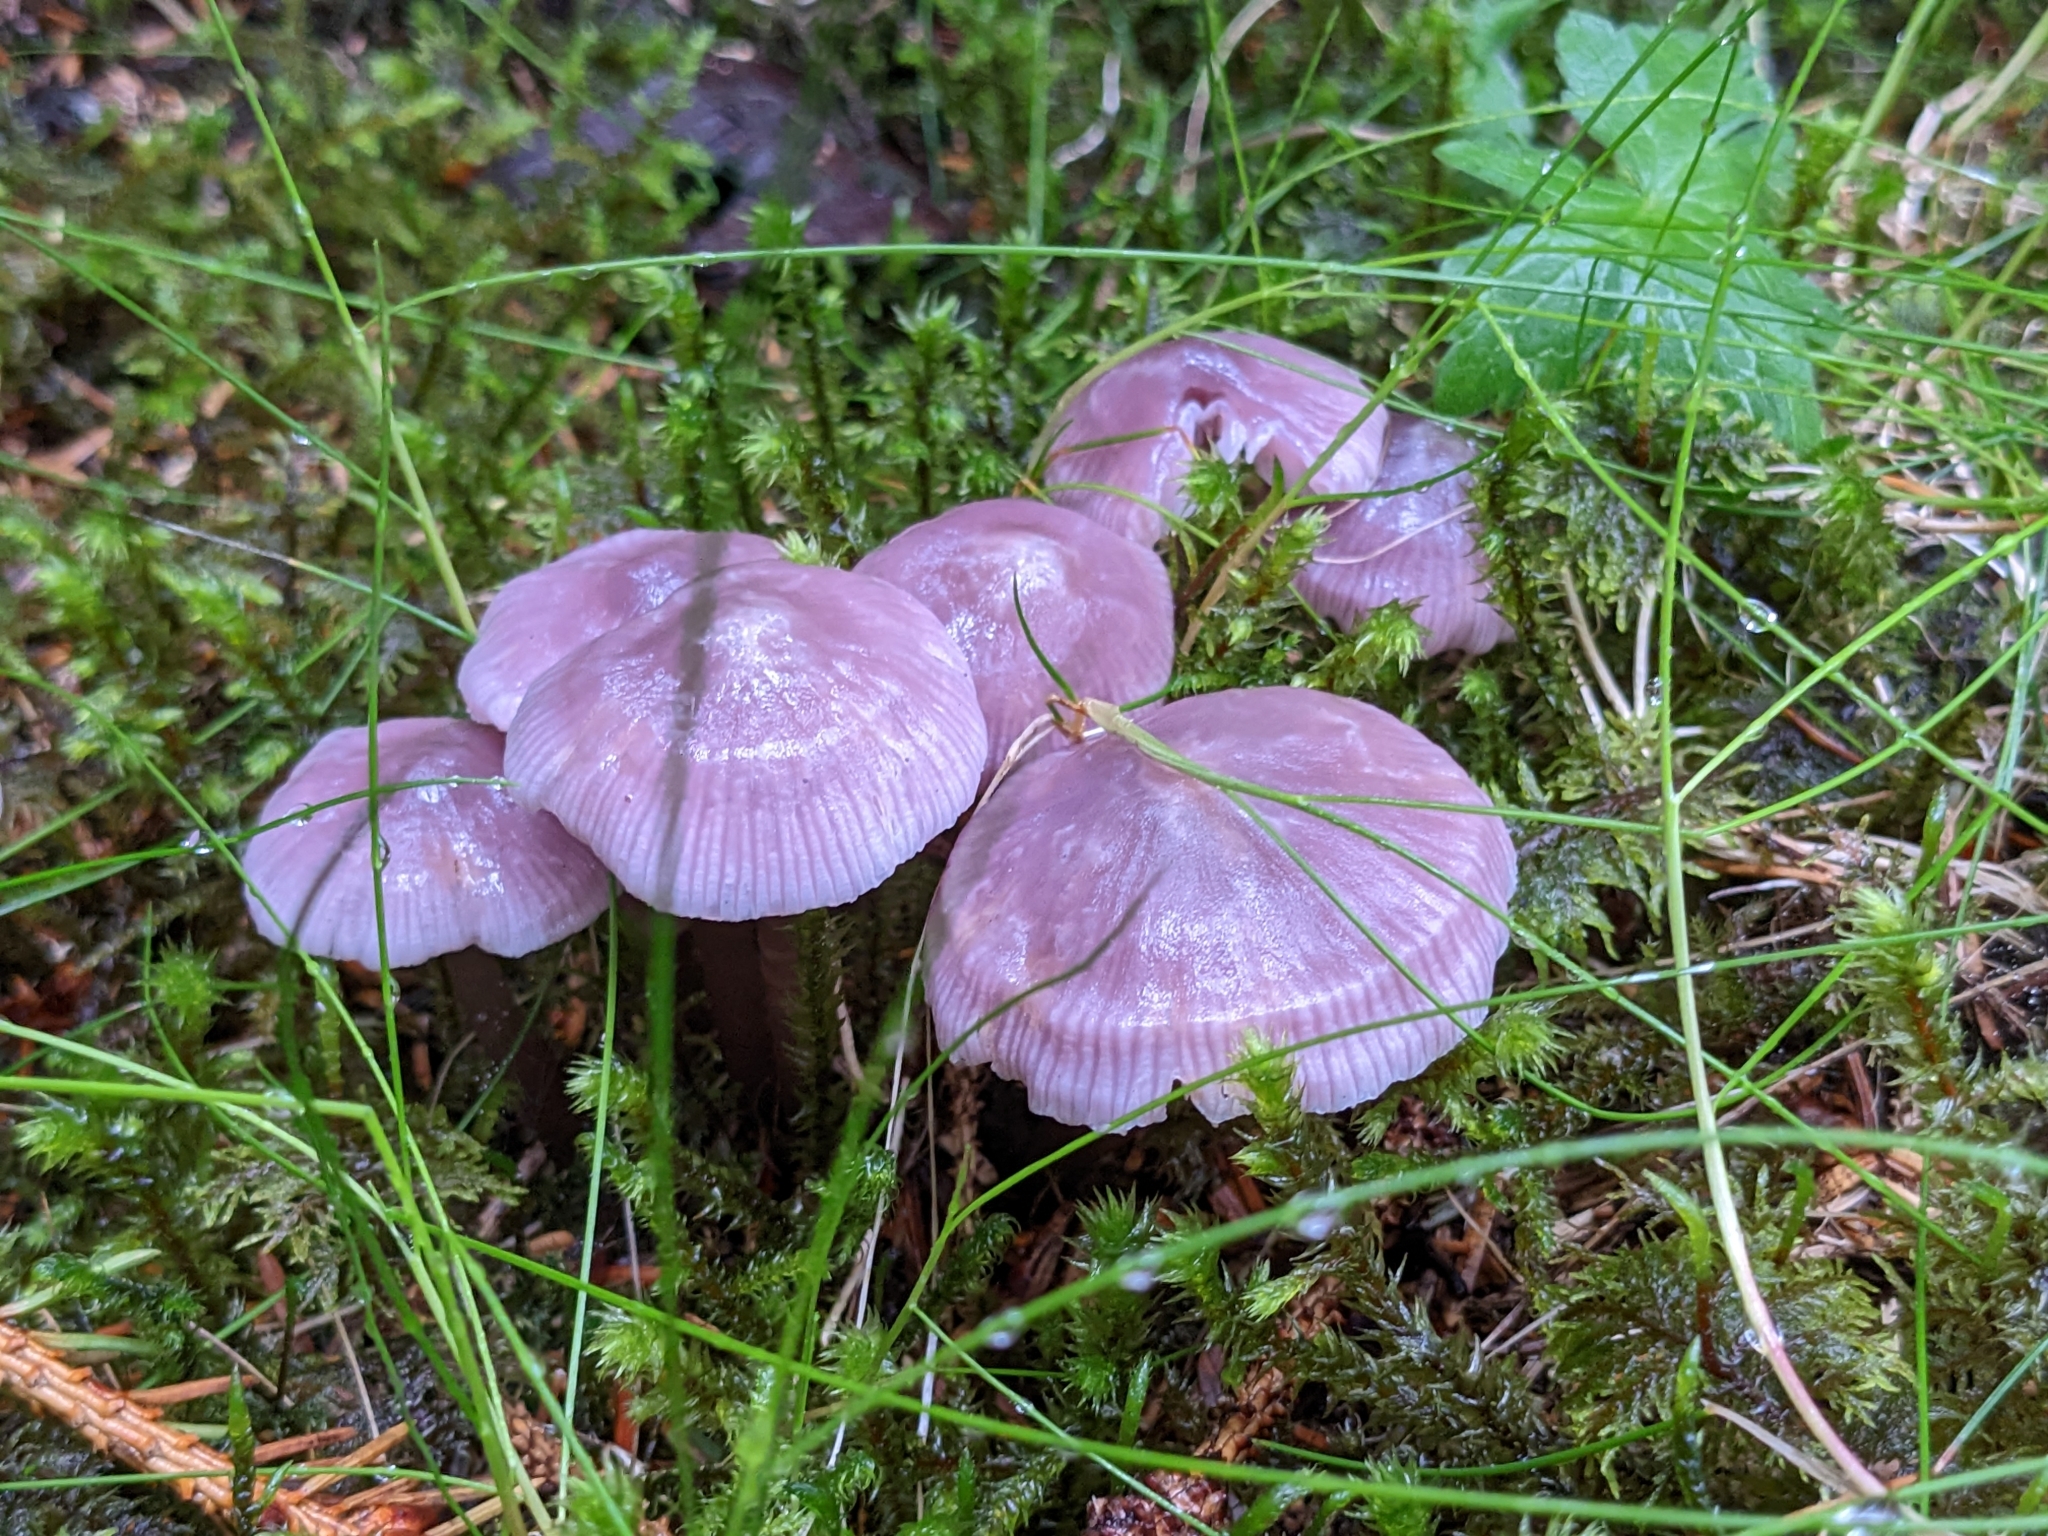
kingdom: Fungi
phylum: Basidiomycota
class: Agaricomycetes
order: Agaricales
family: Mycenaceae
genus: Mycena
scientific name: Mycena pura
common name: Lilac bonnet
